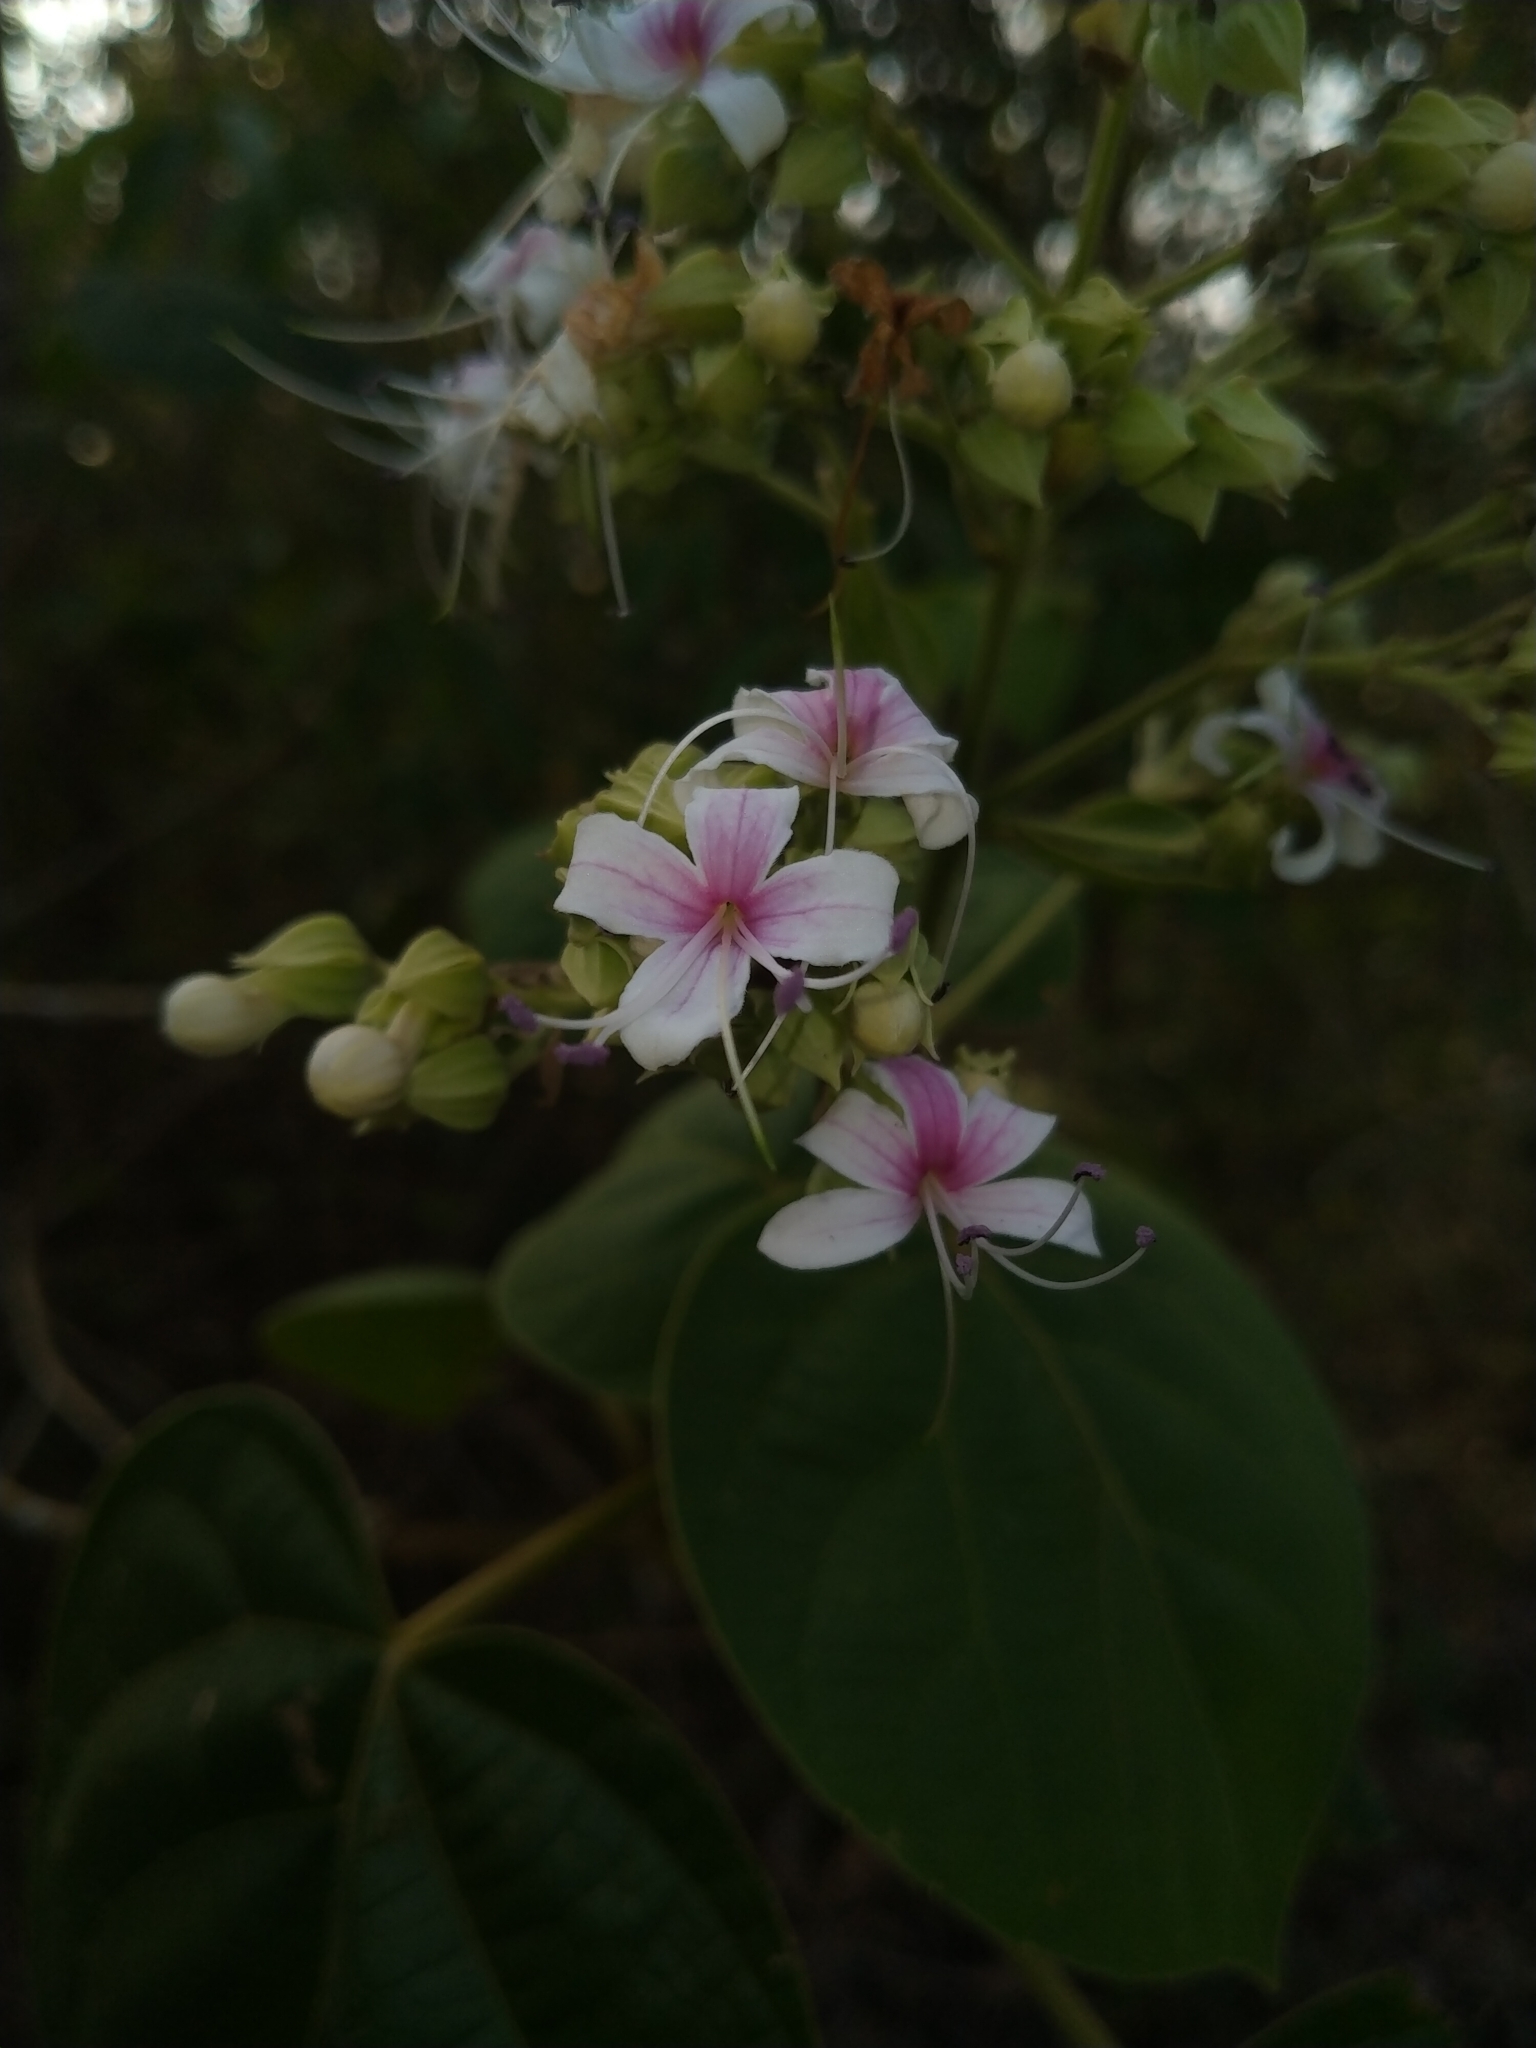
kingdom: Plantae
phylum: Tracheophyta
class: Magnoliopsida
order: Lamiales
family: Lamiaceae
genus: Clerodendrum
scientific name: Clerodendrum infortunatum
